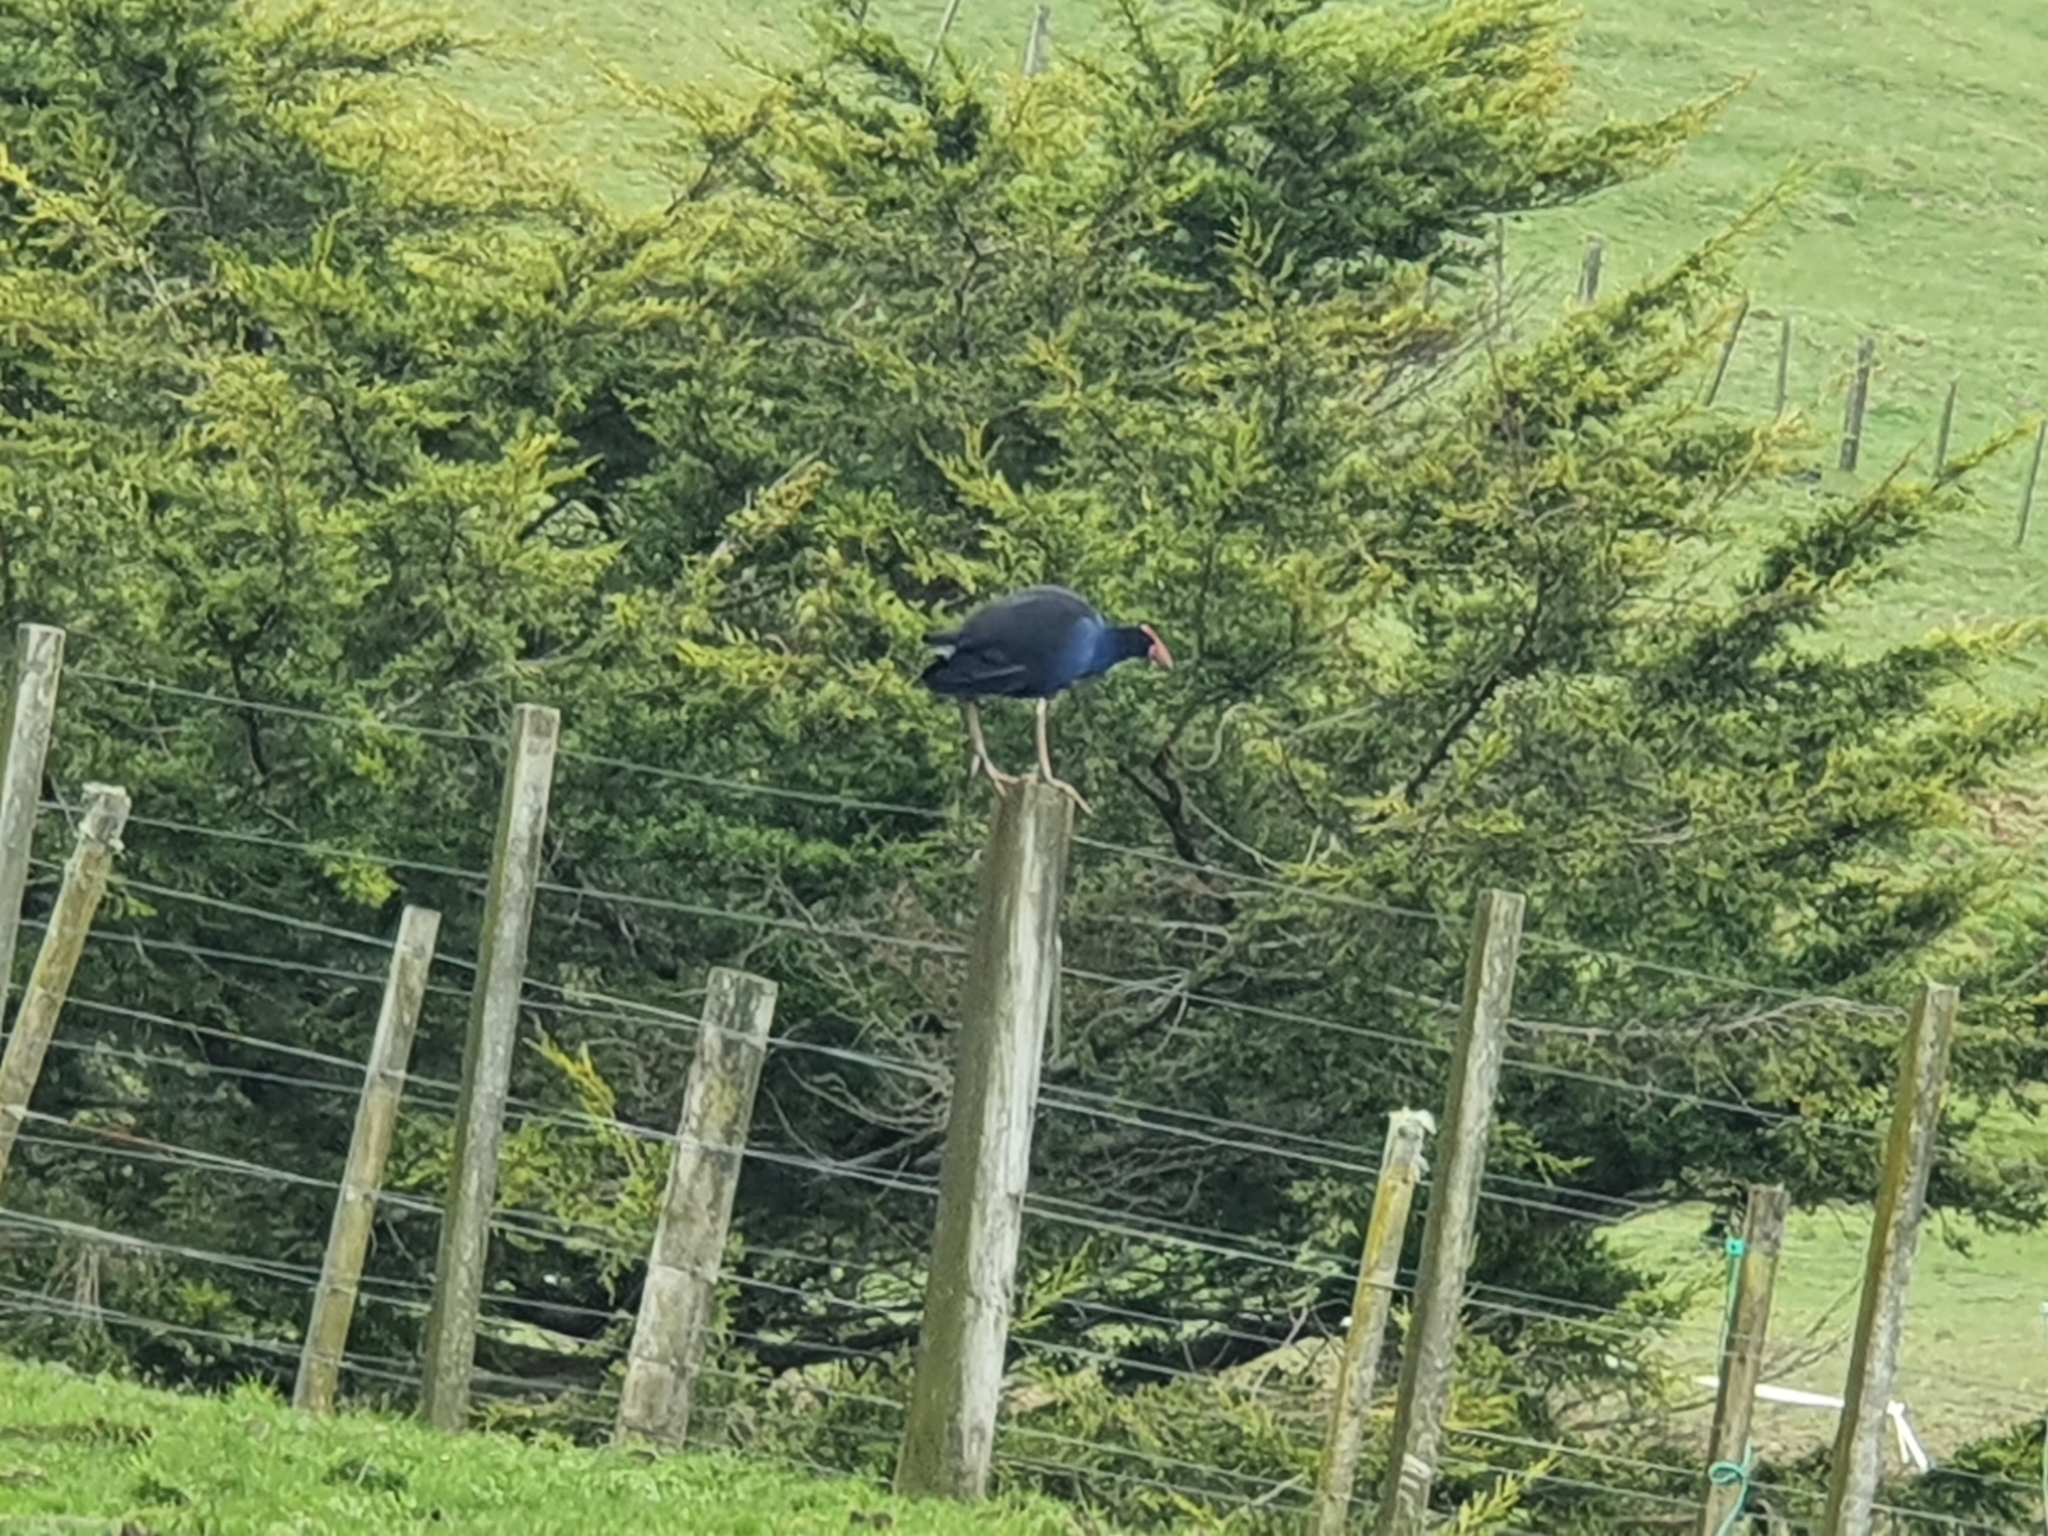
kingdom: Animalia
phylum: Chordata
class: Aves
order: Gruiformes
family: Rallidae
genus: Porphyrio
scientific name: Porphyrio melanotus
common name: Australasian swamphen
